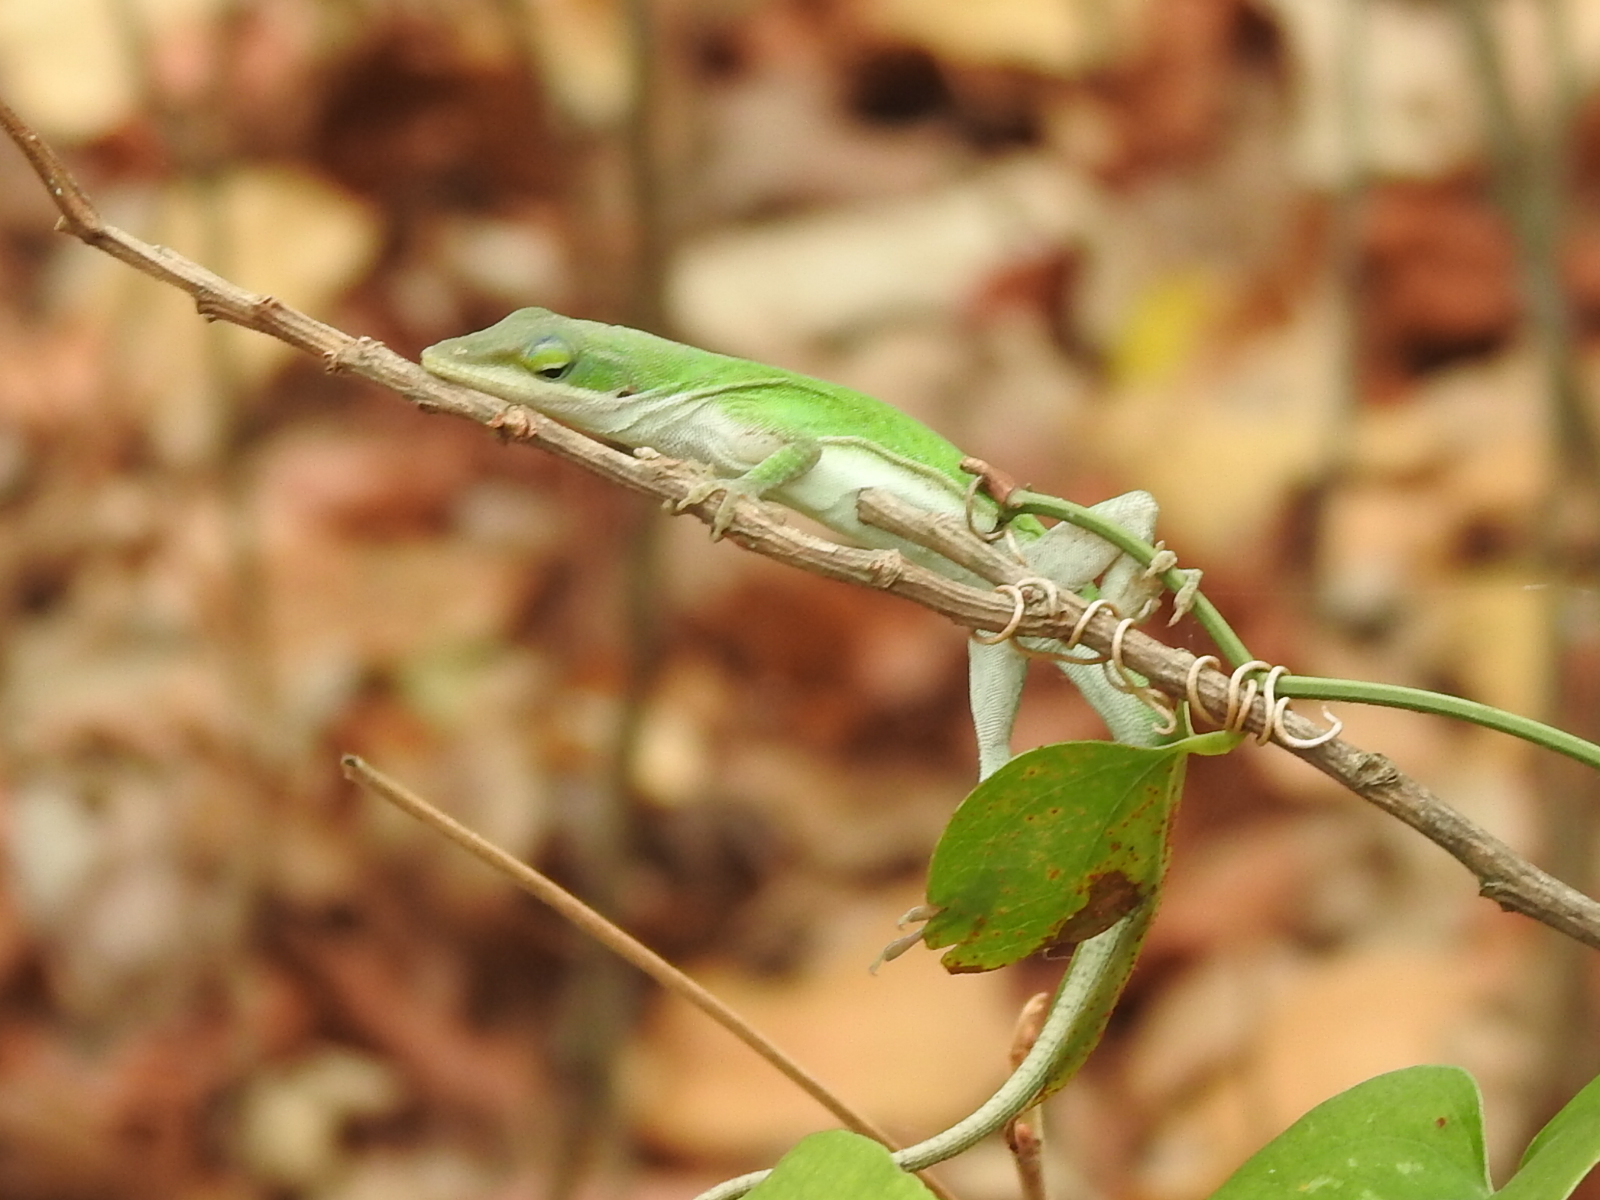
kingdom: Animalia
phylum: Chordata
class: Squamata
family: Dactyloidae
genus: Anolis
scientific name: Anolis carolinensis
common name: Green anole
